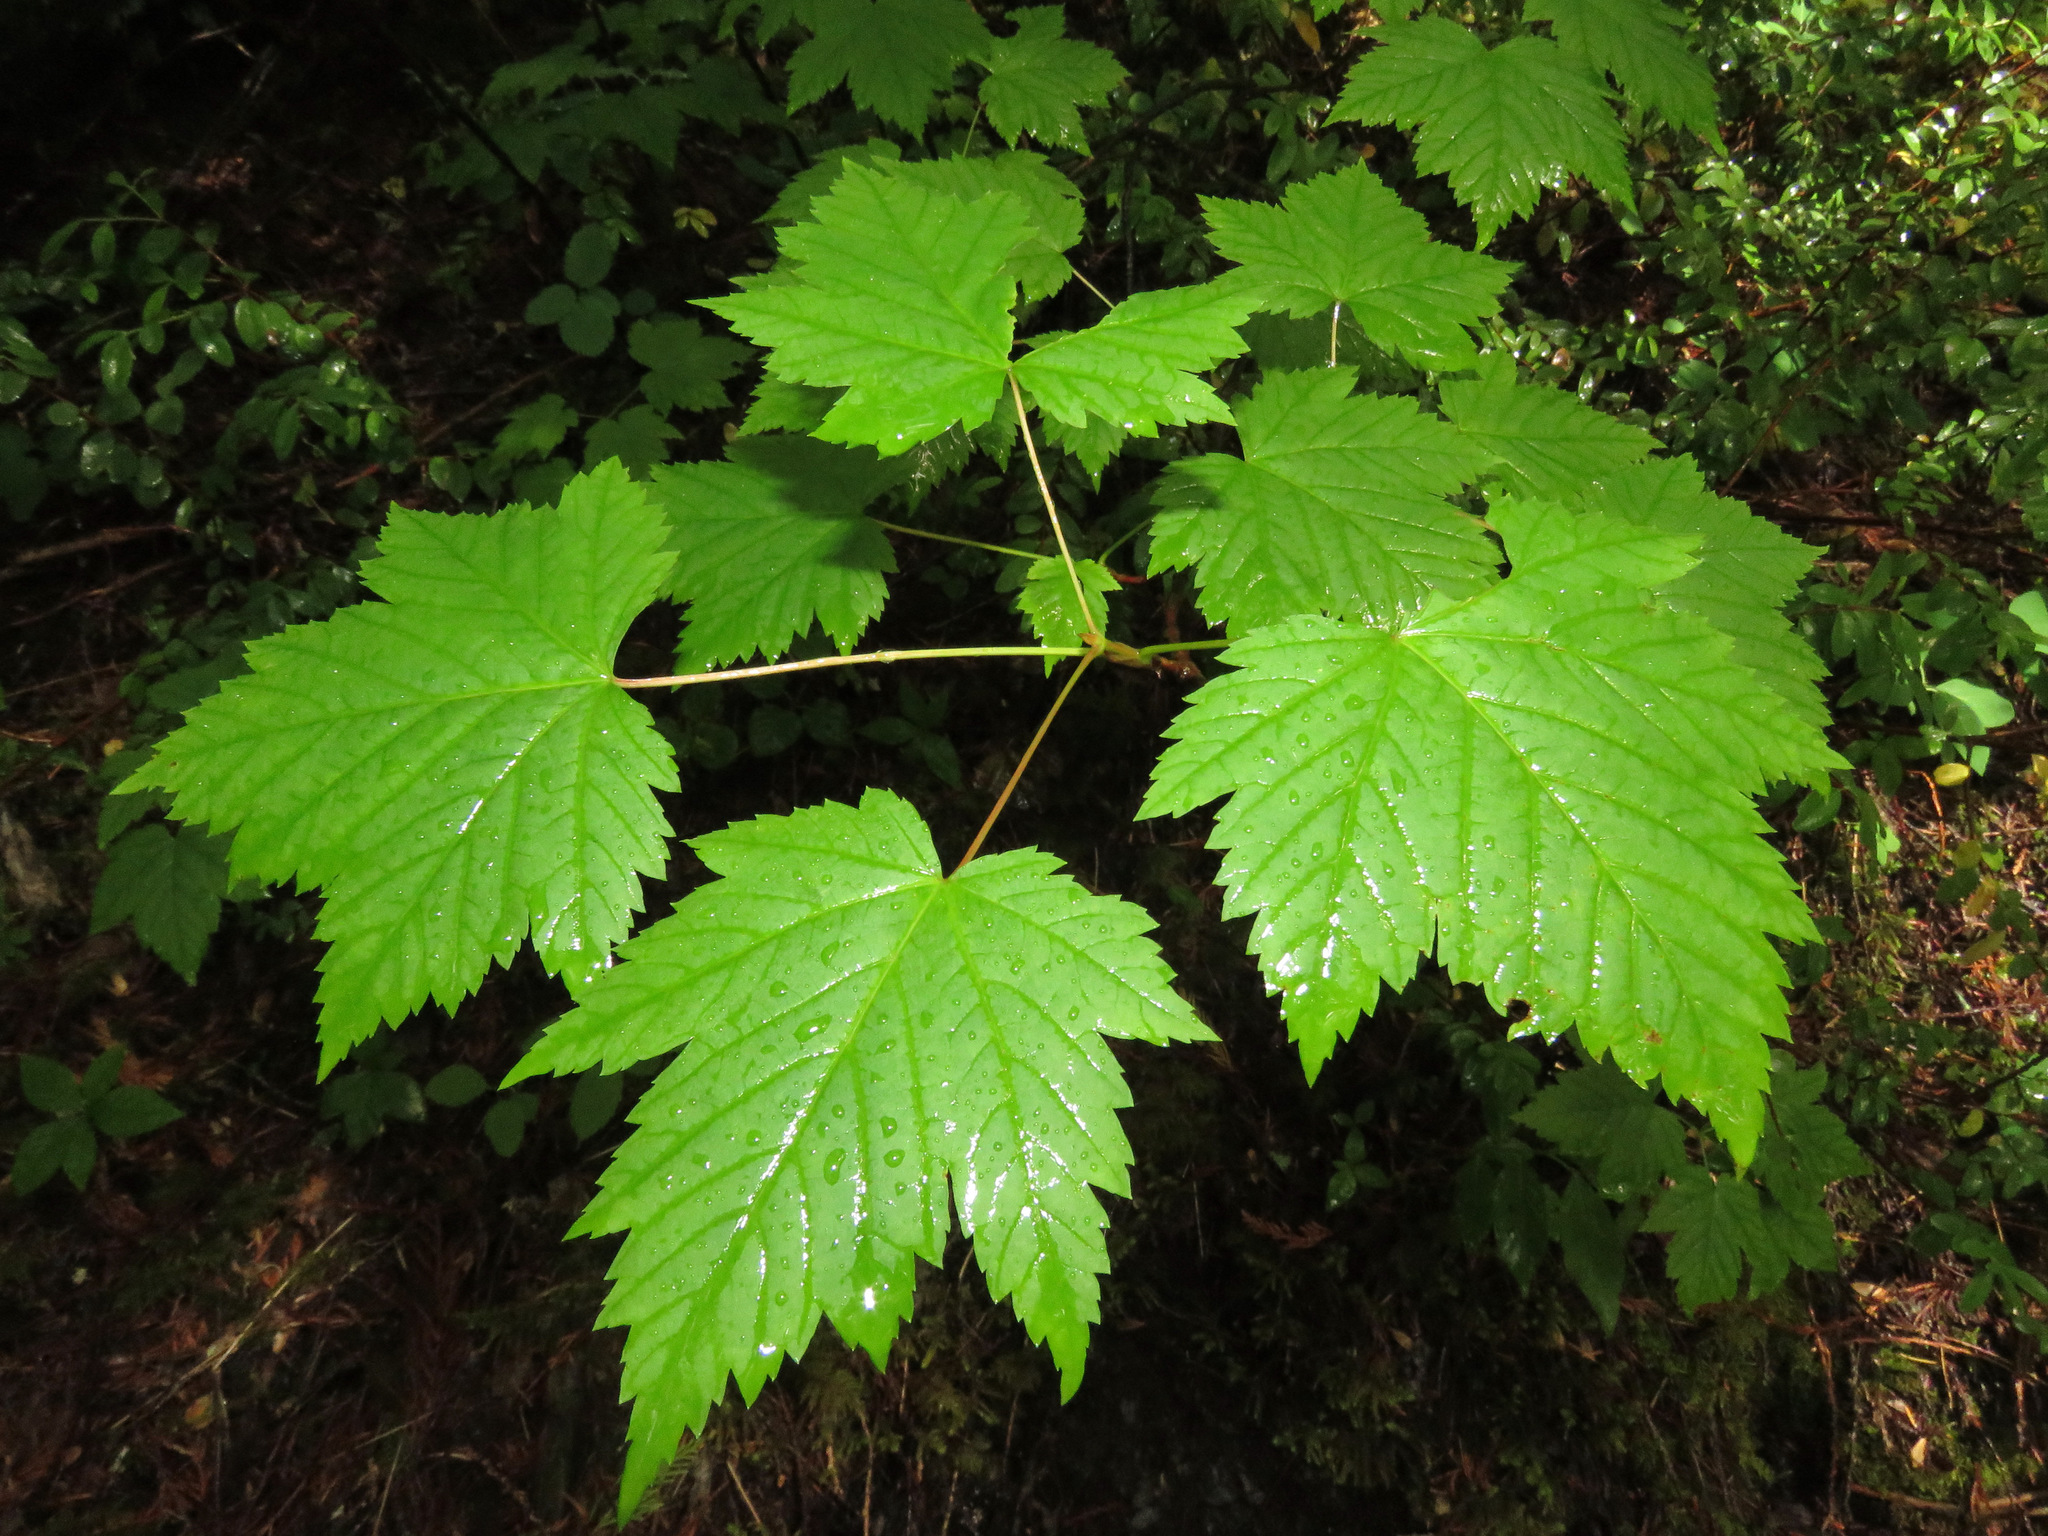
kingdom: Plantae
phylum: Tracheophyta
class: Magnoliopsida
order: Sapindales
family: Sapindaceae
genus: Acer
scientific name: Acer glabrum
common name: Rocky mountain maple
